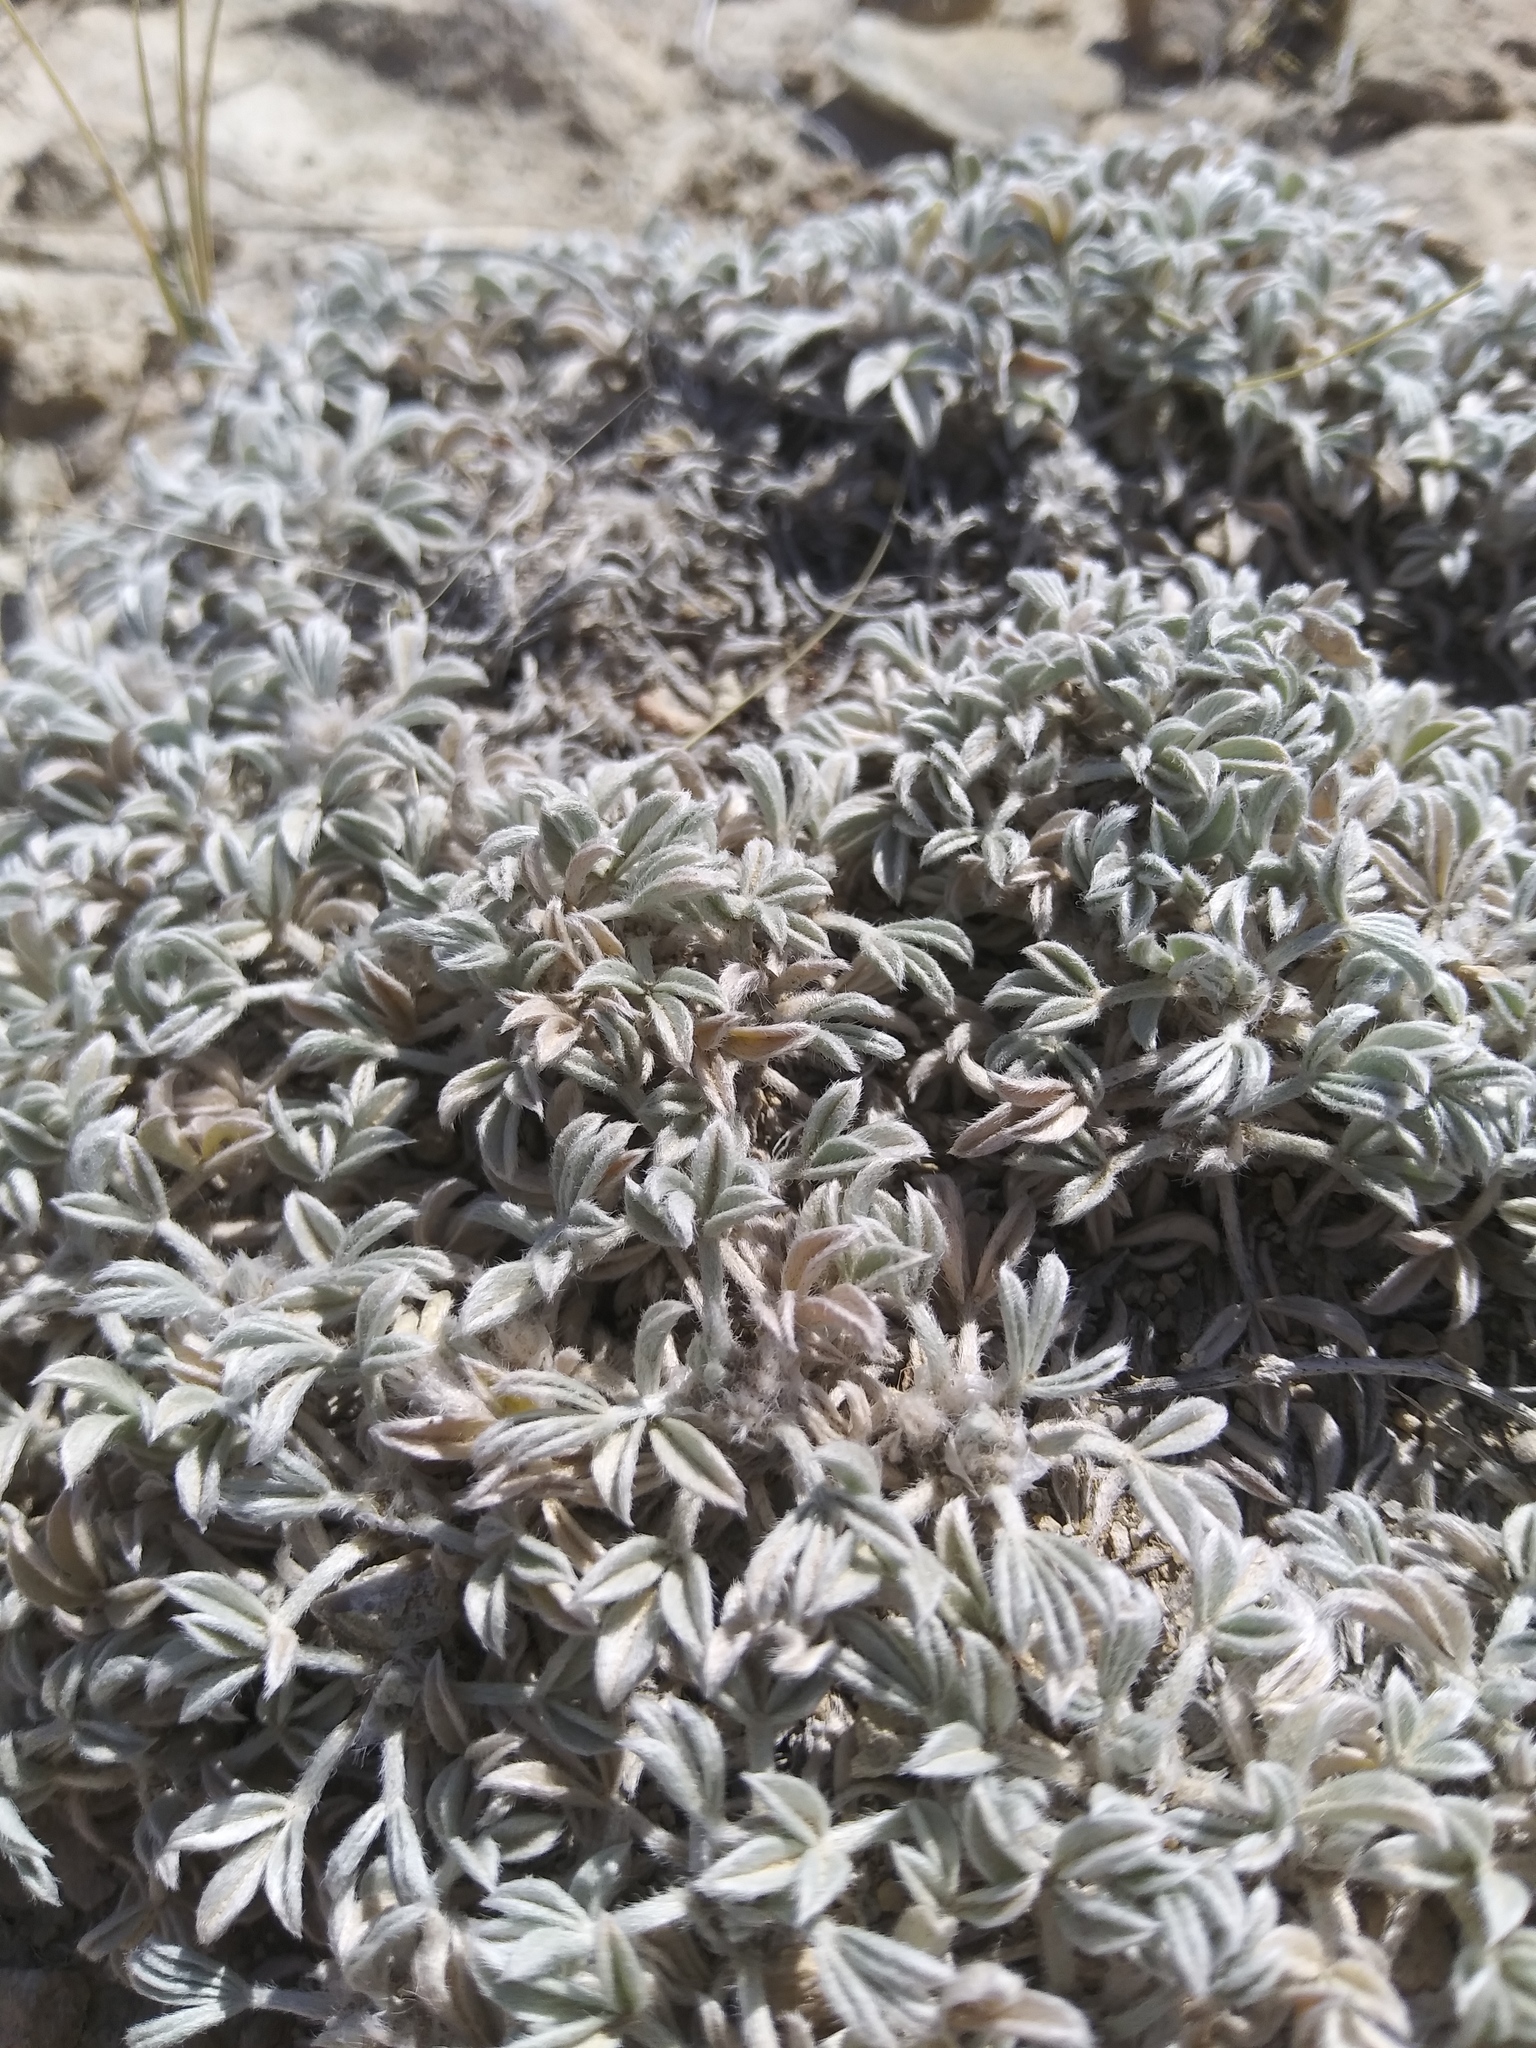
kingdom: Plantae
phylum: Tracheophyta
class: Magnoliopsida
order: Fabales
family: Fabaceae
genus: Astragalus
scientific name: Astragalus hyalinus
